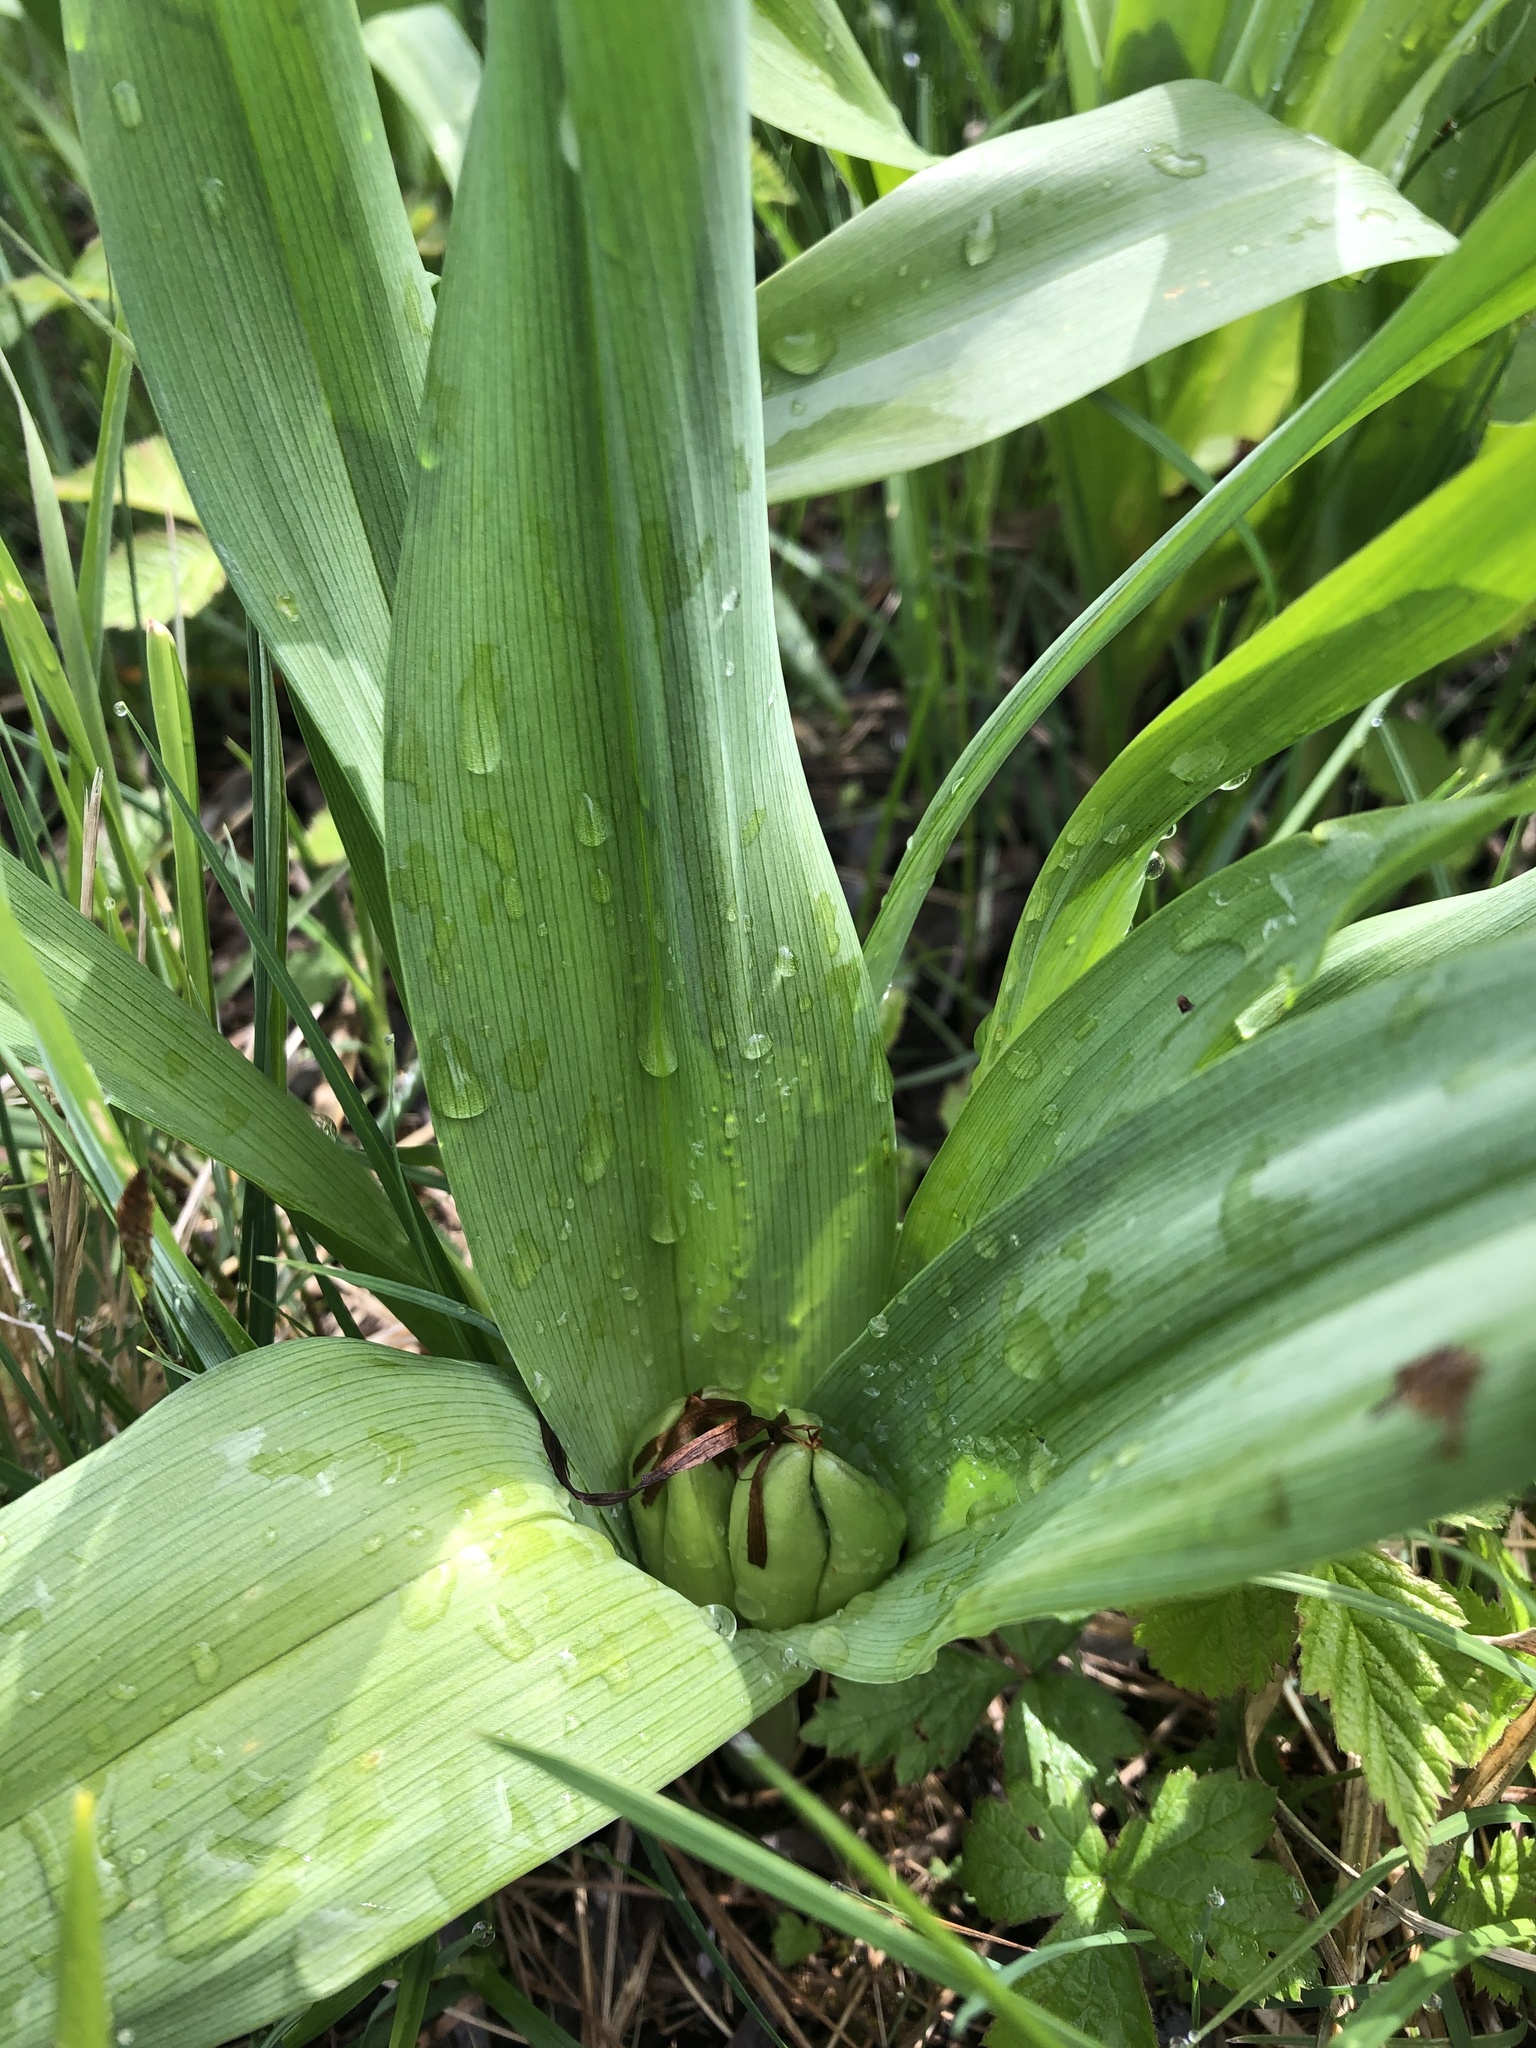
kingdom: Plantae
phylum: Tracheophyta
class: Liliopsida
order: Liliales
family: Colchicaceae
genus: Colchicum
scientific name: Colchicum autumnale
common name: Autumn crocus
